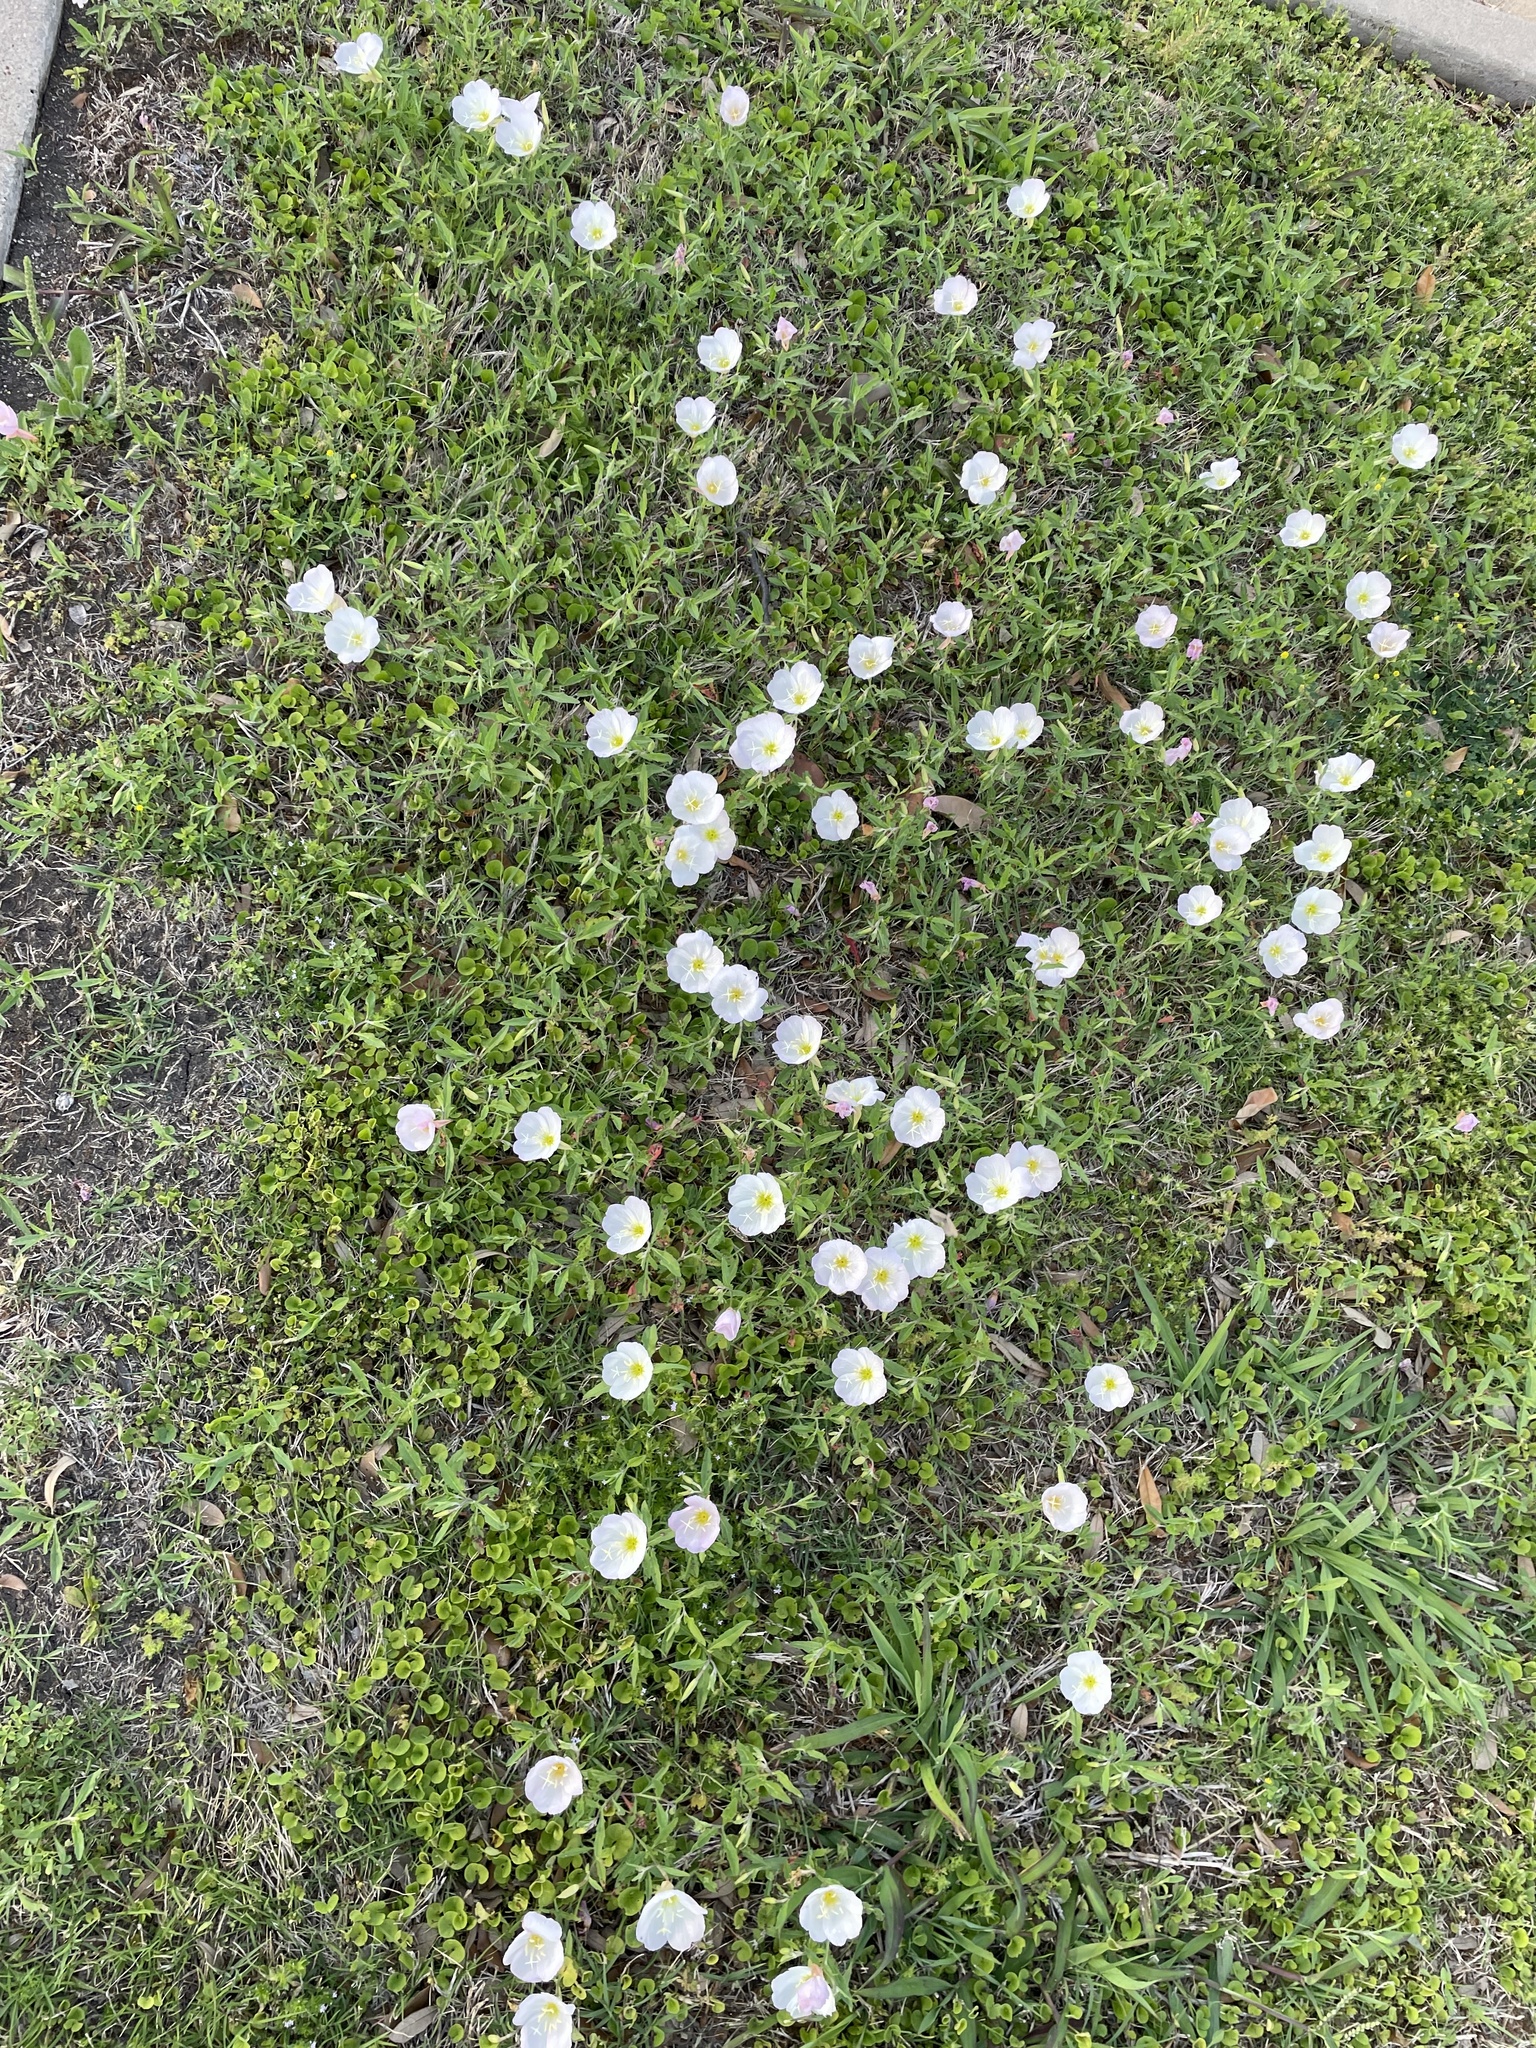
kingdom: Plantae
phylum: Tracheophyta
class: Magnoliopsida
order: Myrtales
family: Onagraceae
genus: Oenothera
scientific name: Oenothera speciosa
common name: White evening-primrose
